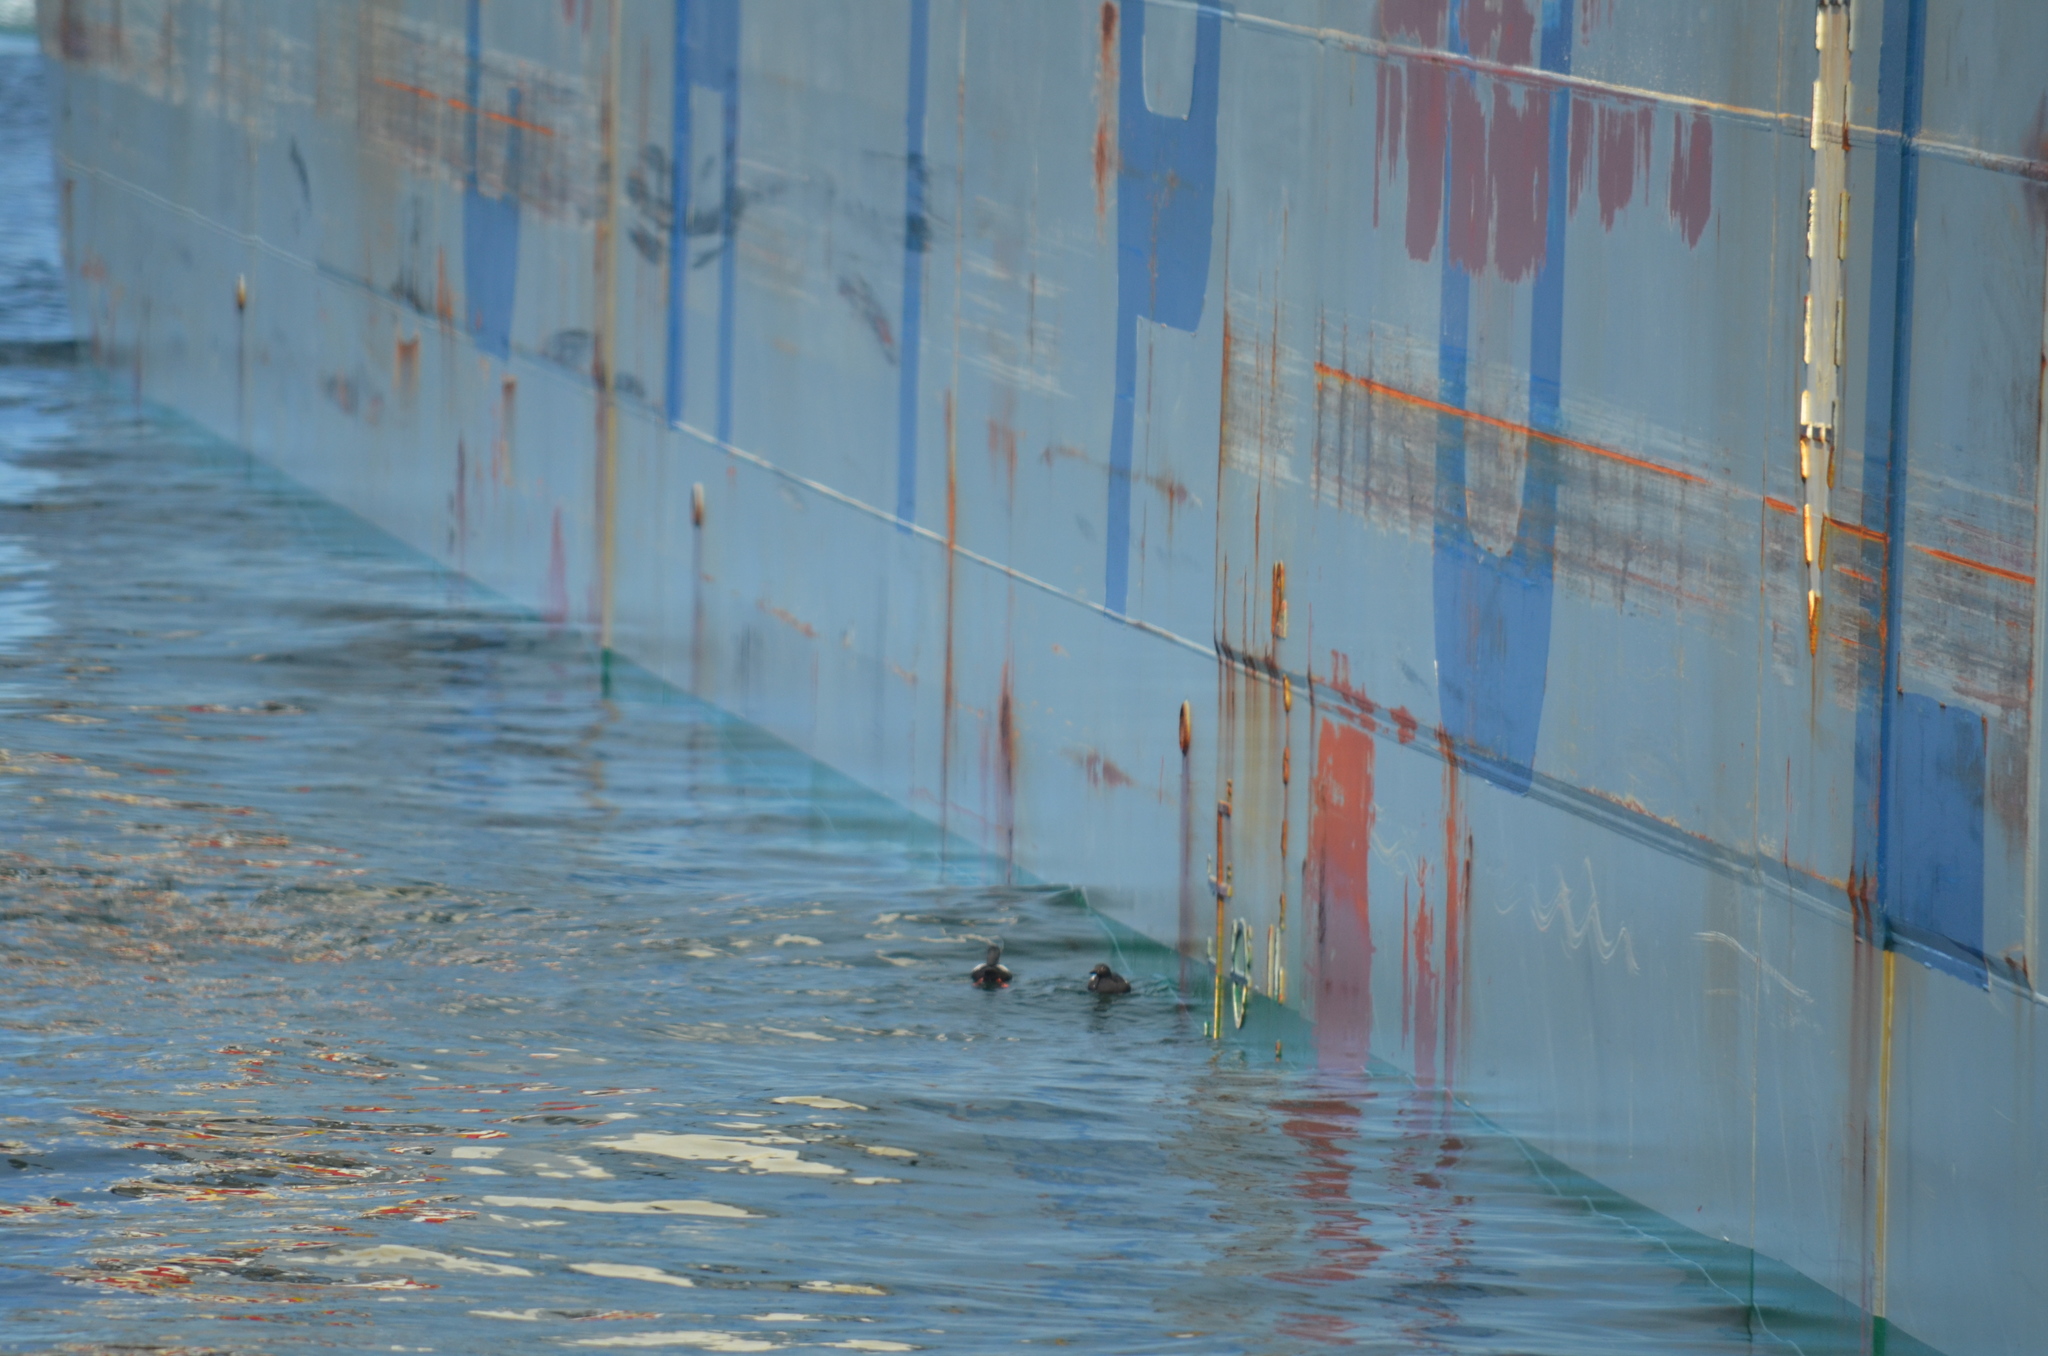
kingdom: Animalia
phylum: Chordata
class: Aves
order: Charadriiformes
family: Alcidae
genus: Cepphus
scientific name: Cepphus columba
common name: Pigeon guillemot
